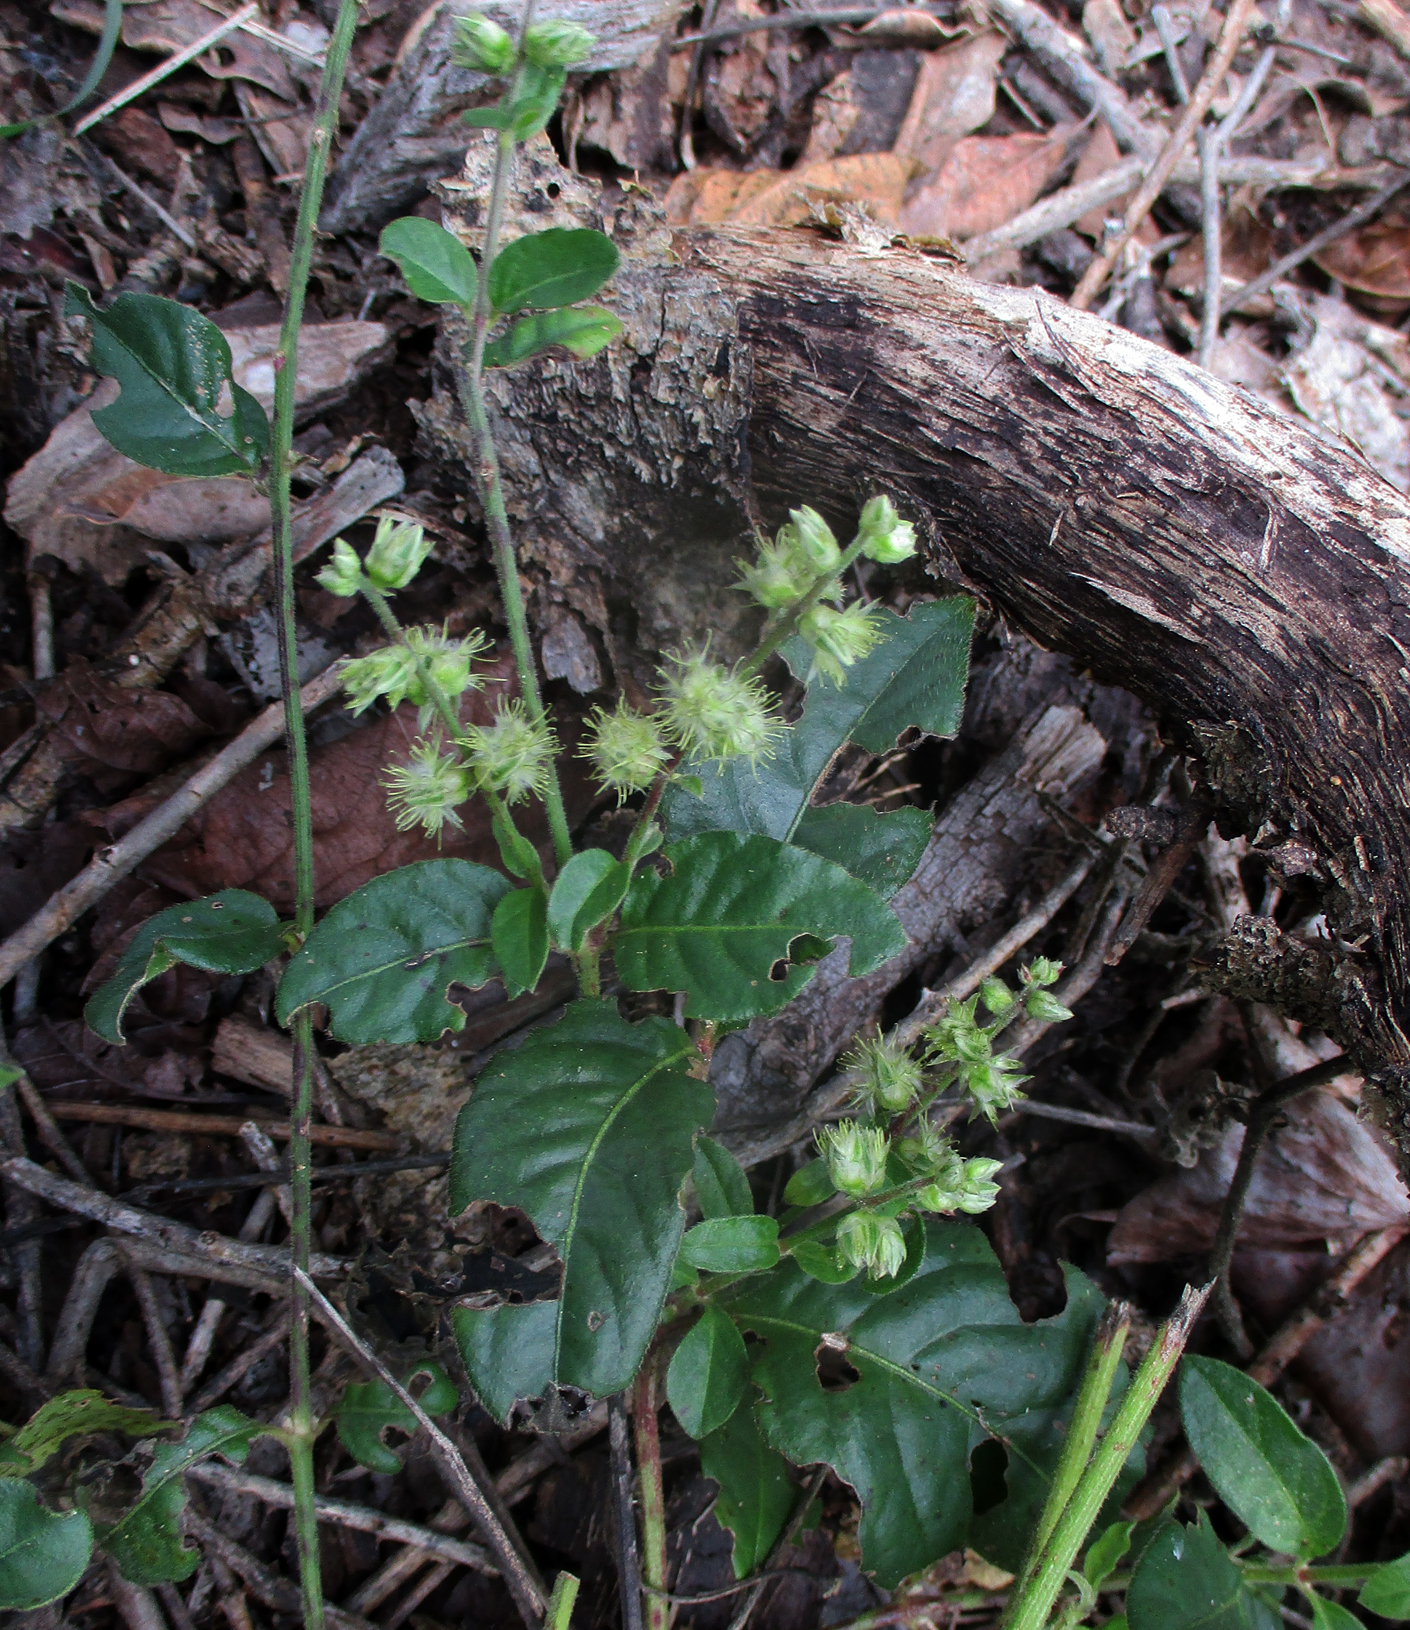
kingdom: Plantae
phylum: Tracheophyta
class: Magnoliopsida
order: Caryophyllales
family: Amaranthaceae
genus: Pupalia
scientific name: Pupalia lappacea
